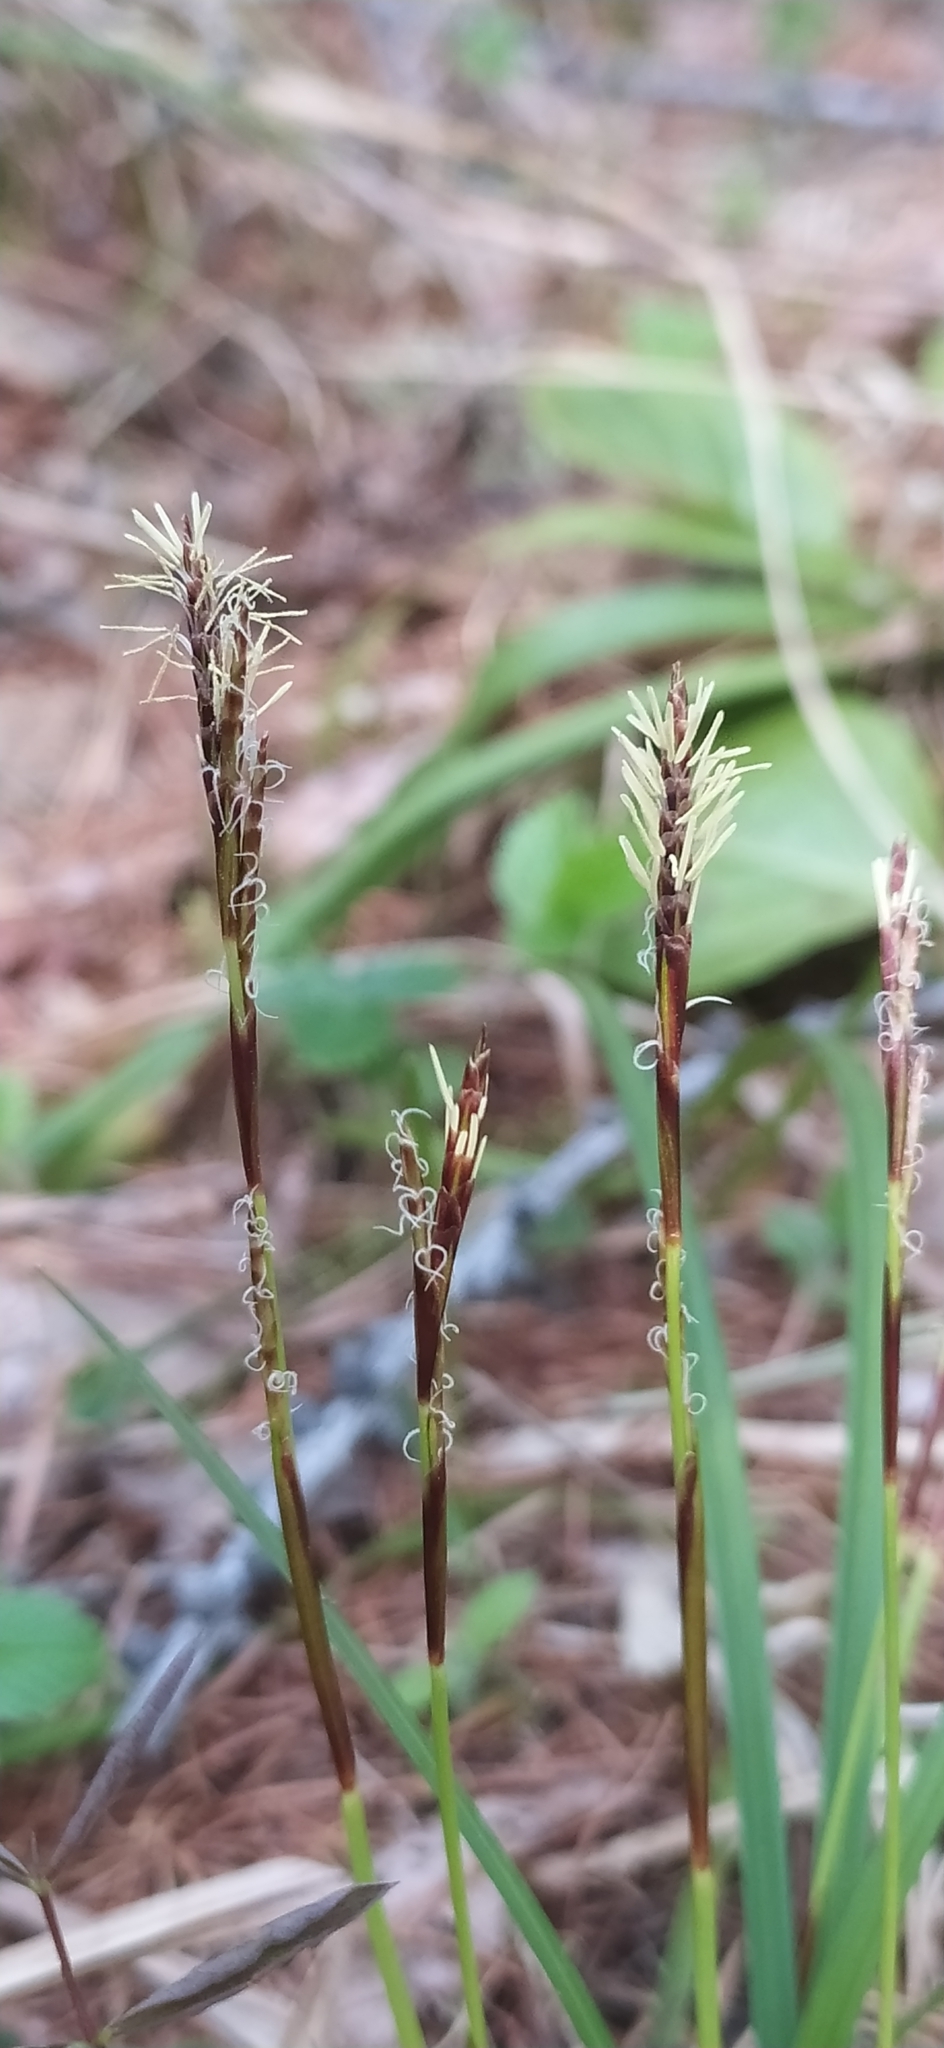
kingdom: Plantae
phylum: Tracheophyta
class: Liliopsida
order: Poales
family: Cyperaceae
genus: Carex
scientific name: Carex digitata
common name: Fingered sedge
